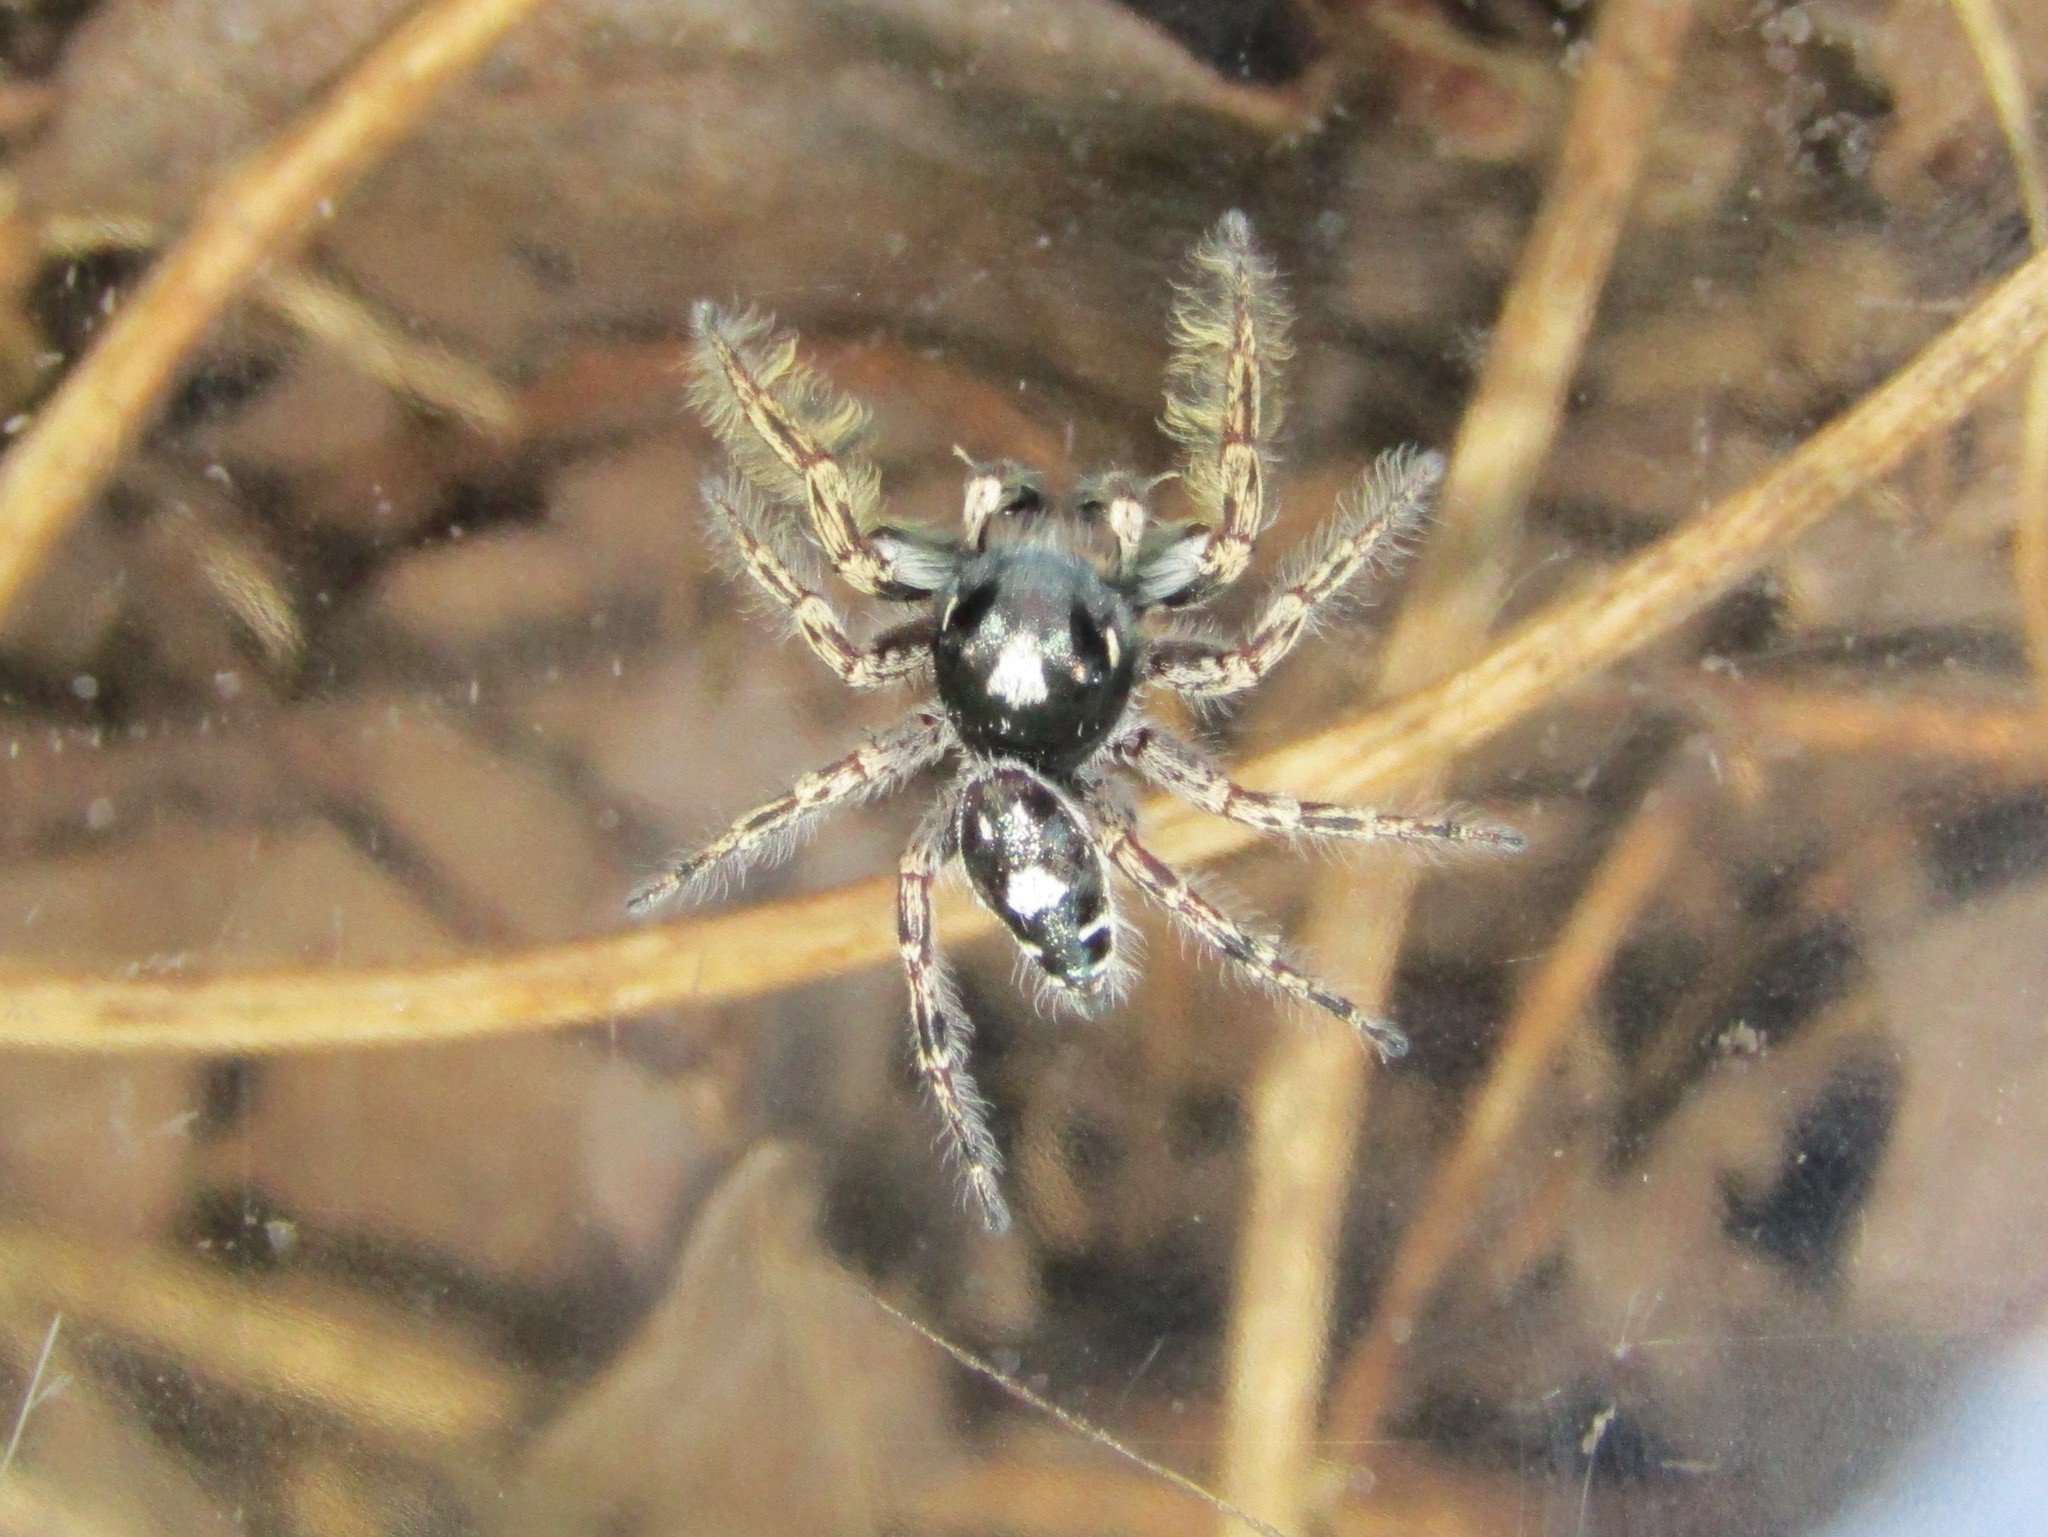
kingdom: Animalia
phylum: Arthropoda
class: Arachnida
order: Araneae
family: Salticidae
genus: Phidippus
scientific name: Phidippus putnami
